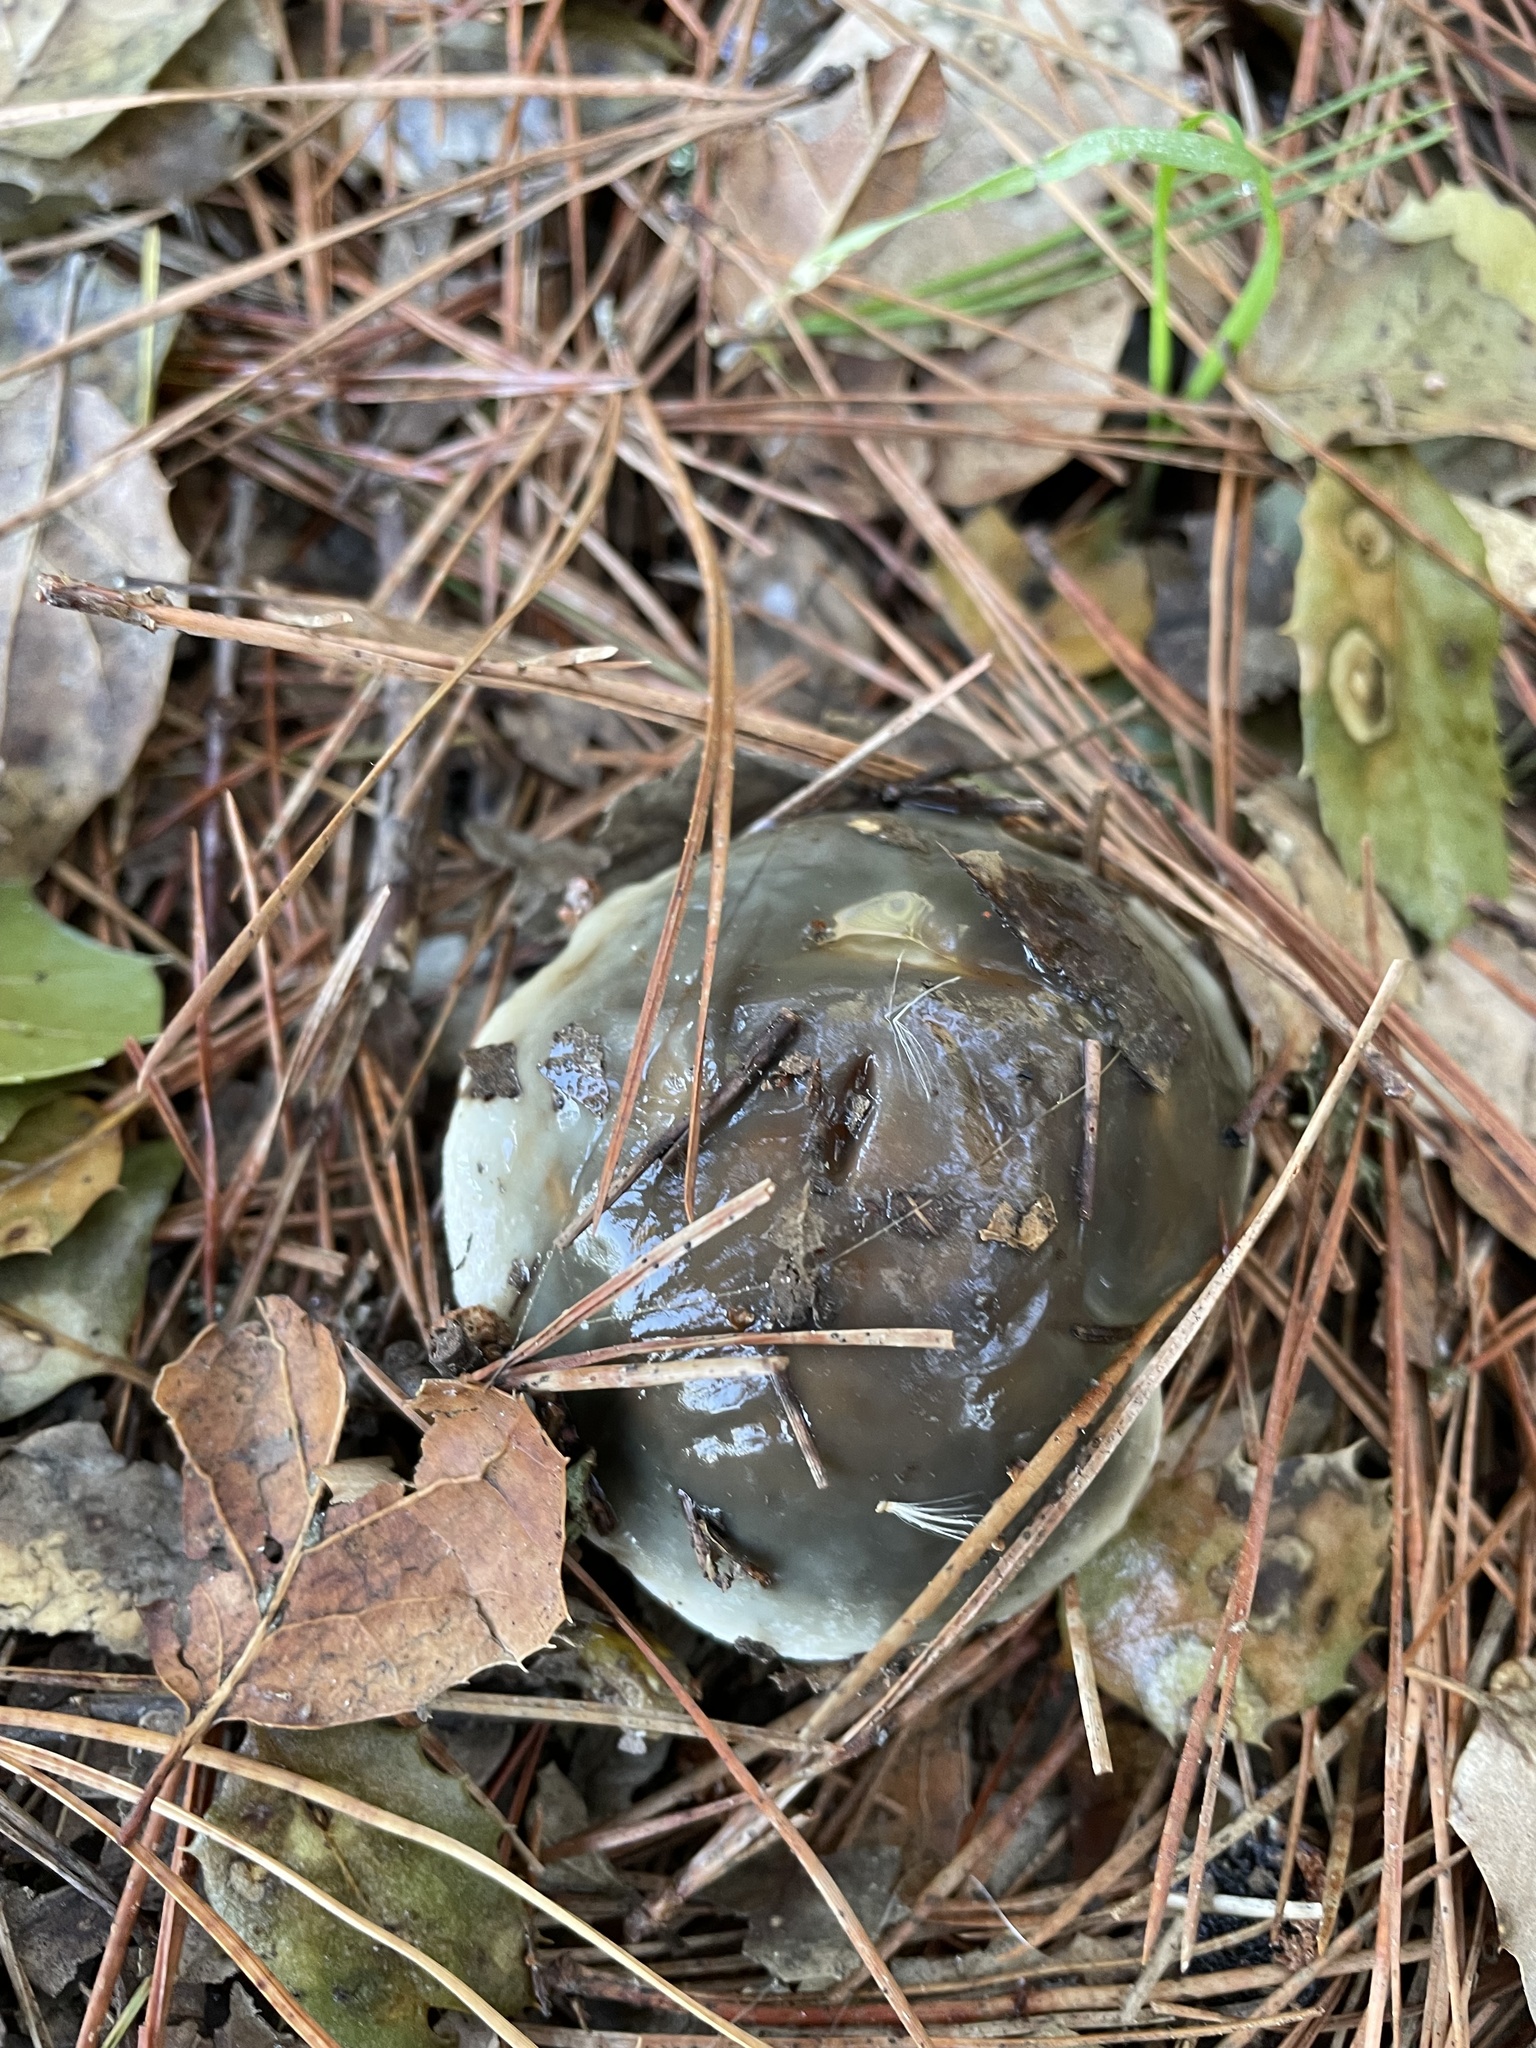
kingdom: Fungi
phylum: Basidiomycota
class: Agaricomycetes
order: Boletales
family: Suillaceae
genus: Suillus
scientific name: Suillus pungens
